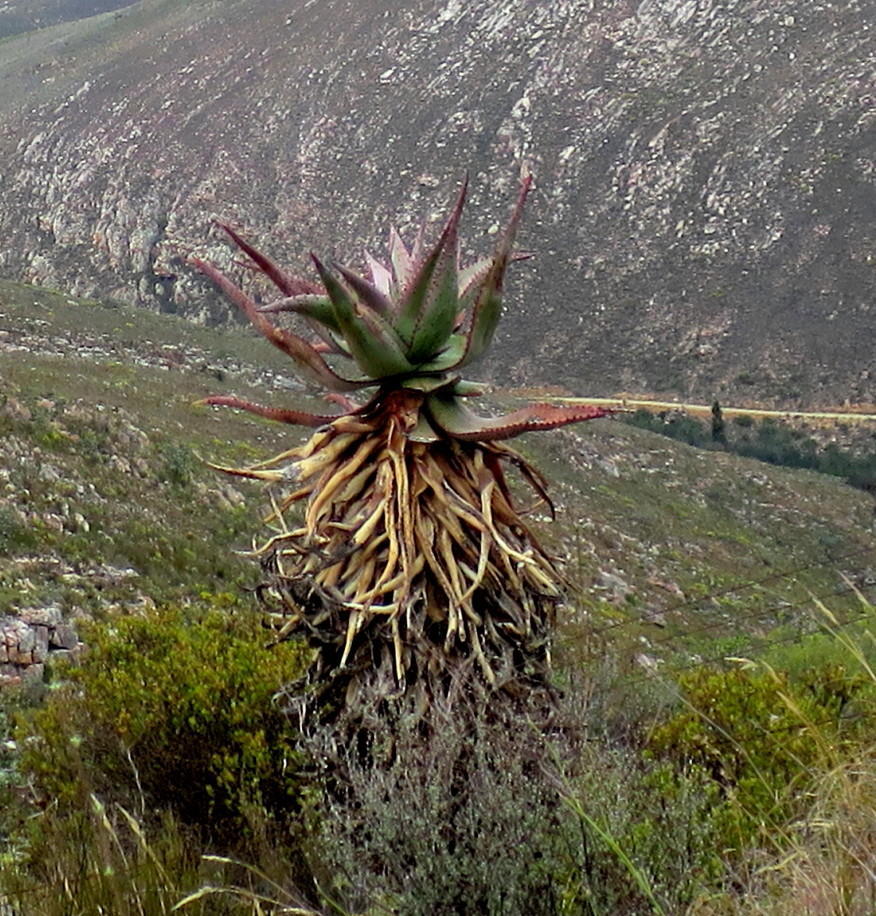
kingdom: Plantae
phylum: Tracheophyta
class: Liliopsida
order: Asparagales
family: Asphodelaceae
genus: Aloe
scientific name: Aloe ferox
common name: Bitter aloe
